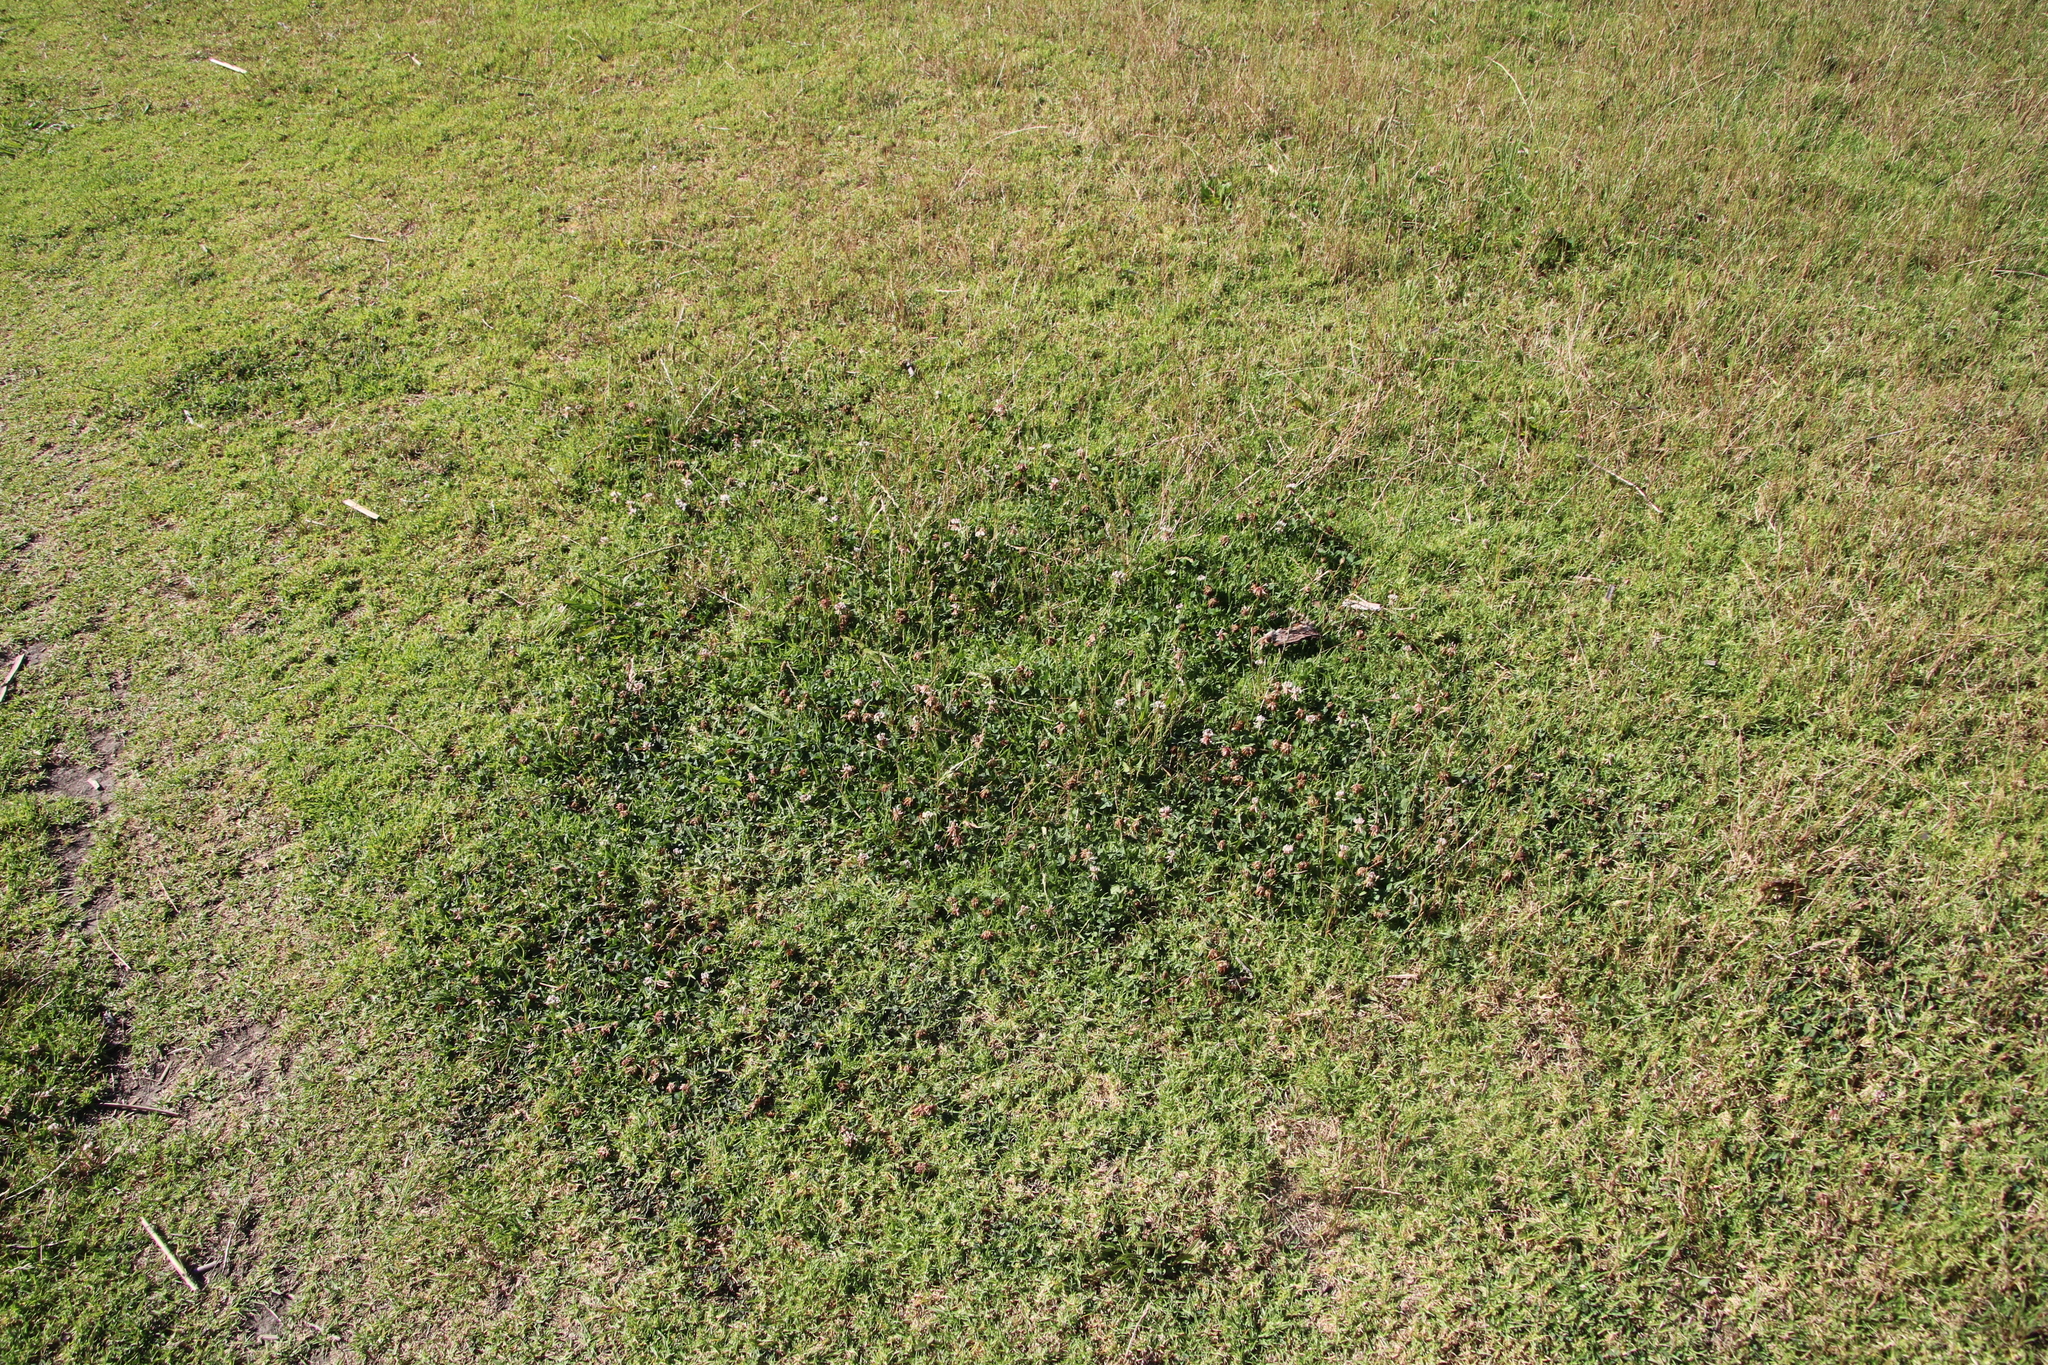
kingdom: Plantae
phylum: Tracheophyta
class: Magnoliopsida
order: Fabales
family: Fabaceae
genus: Trifolium
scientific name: Trifolium repens
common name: White clover
